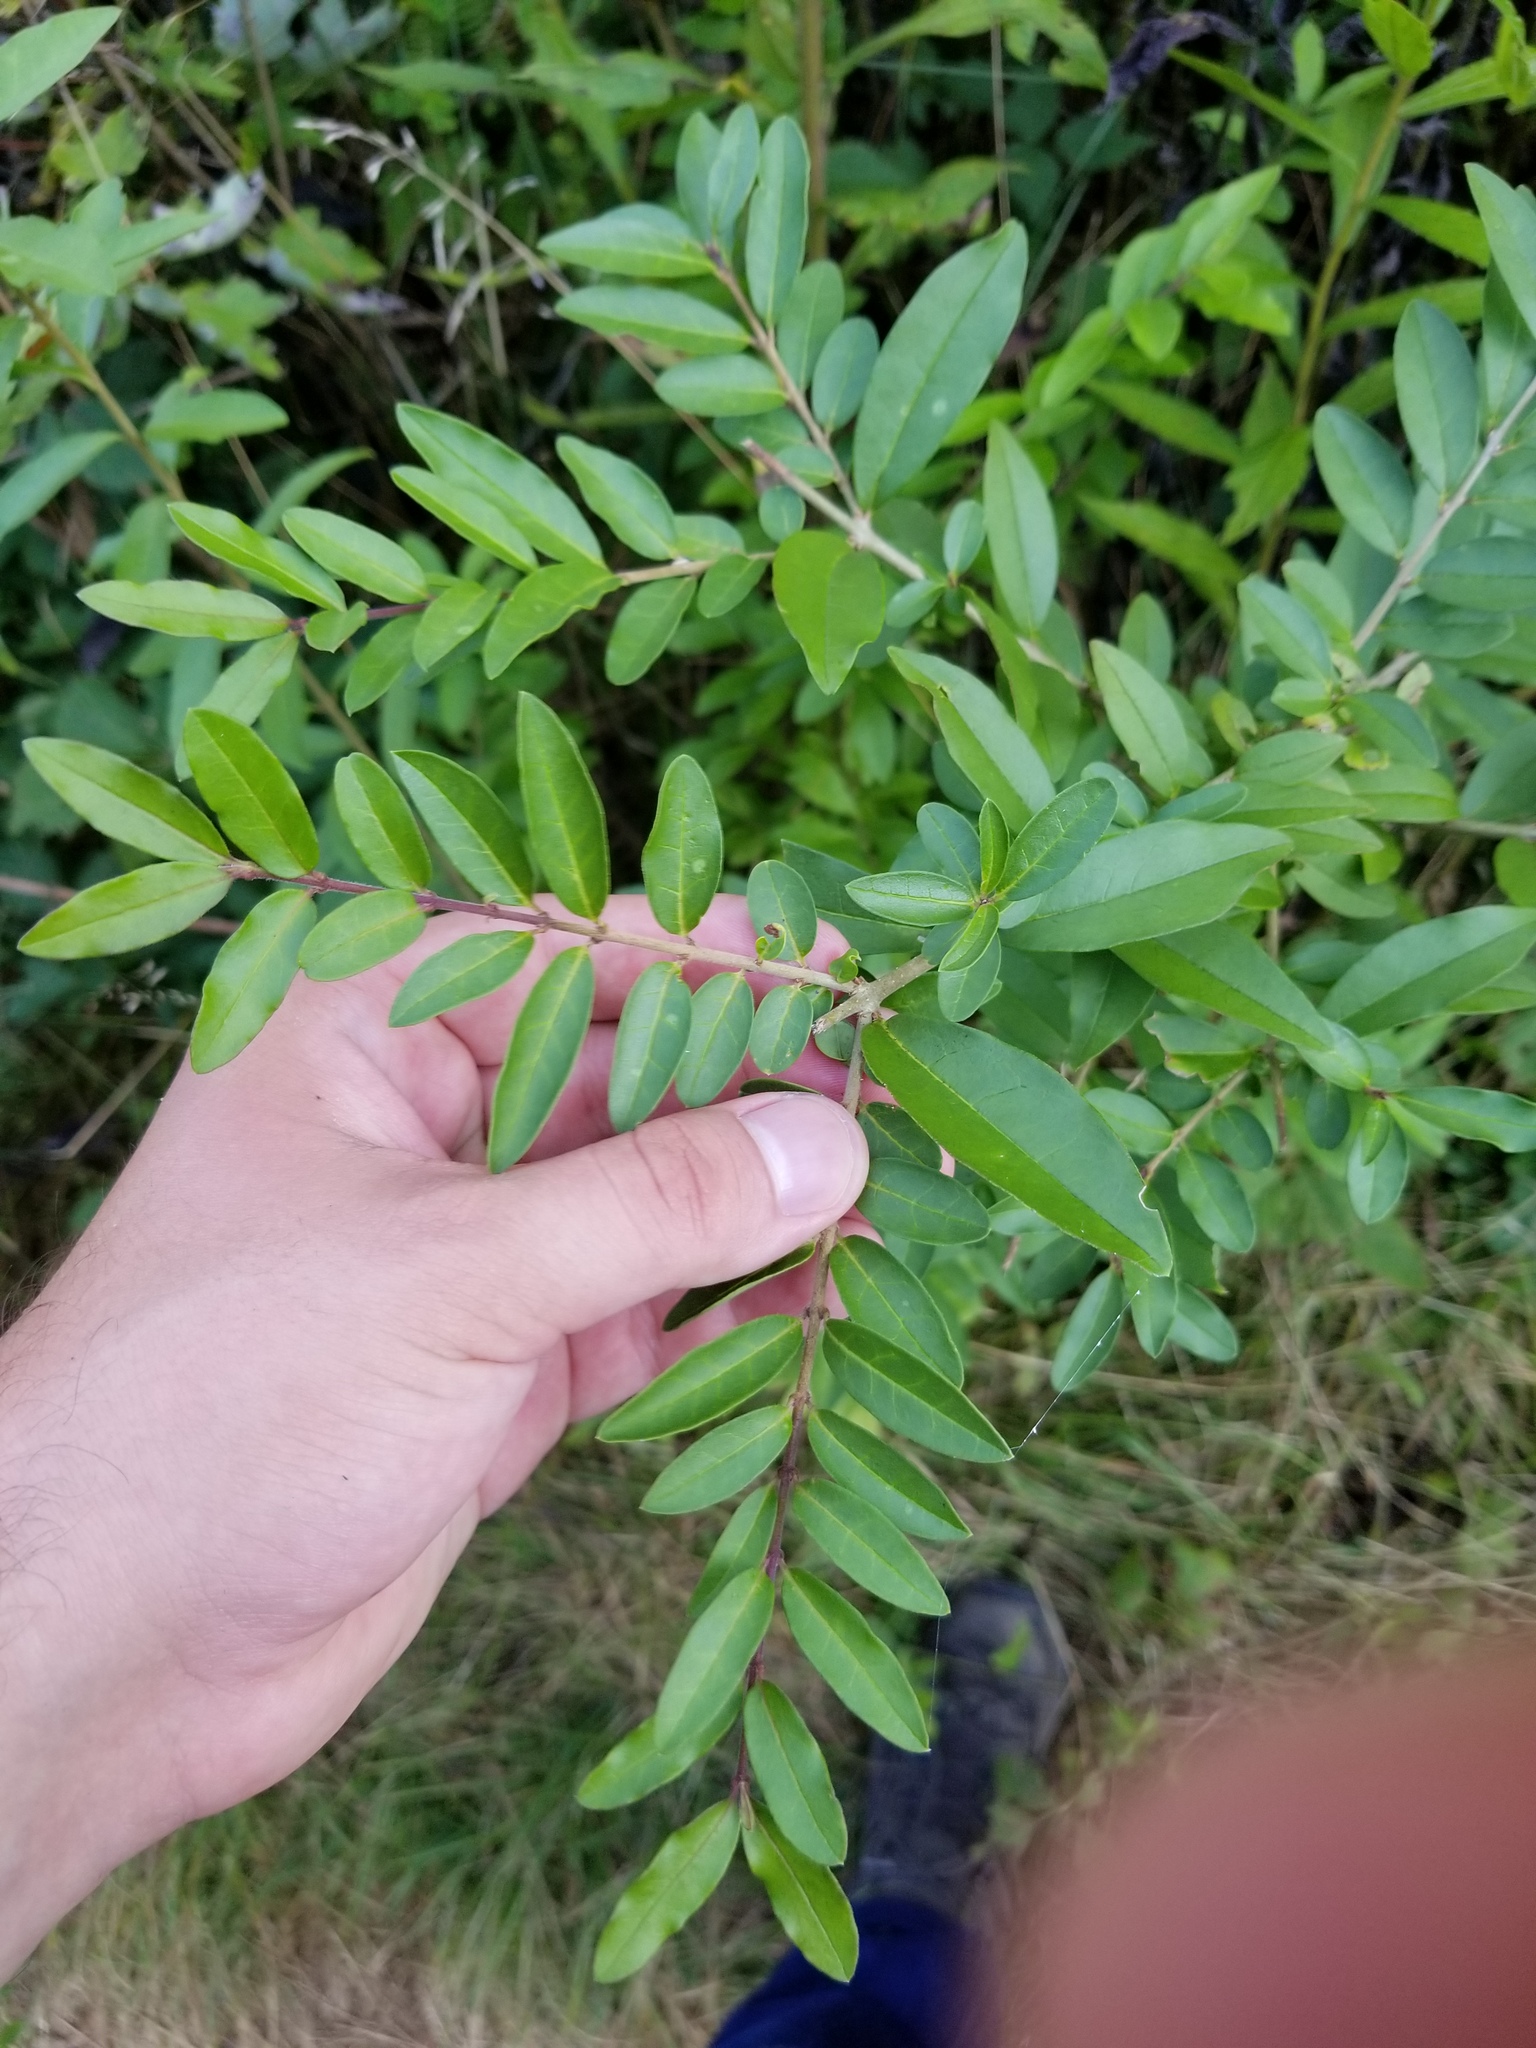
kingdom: Plantae
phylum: Tracheophyta
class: Magnoliopsida
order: Lamiales
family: Oleaceae
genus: Ligustrum
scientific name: Ligustrum obtusifolium
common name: Border privet
